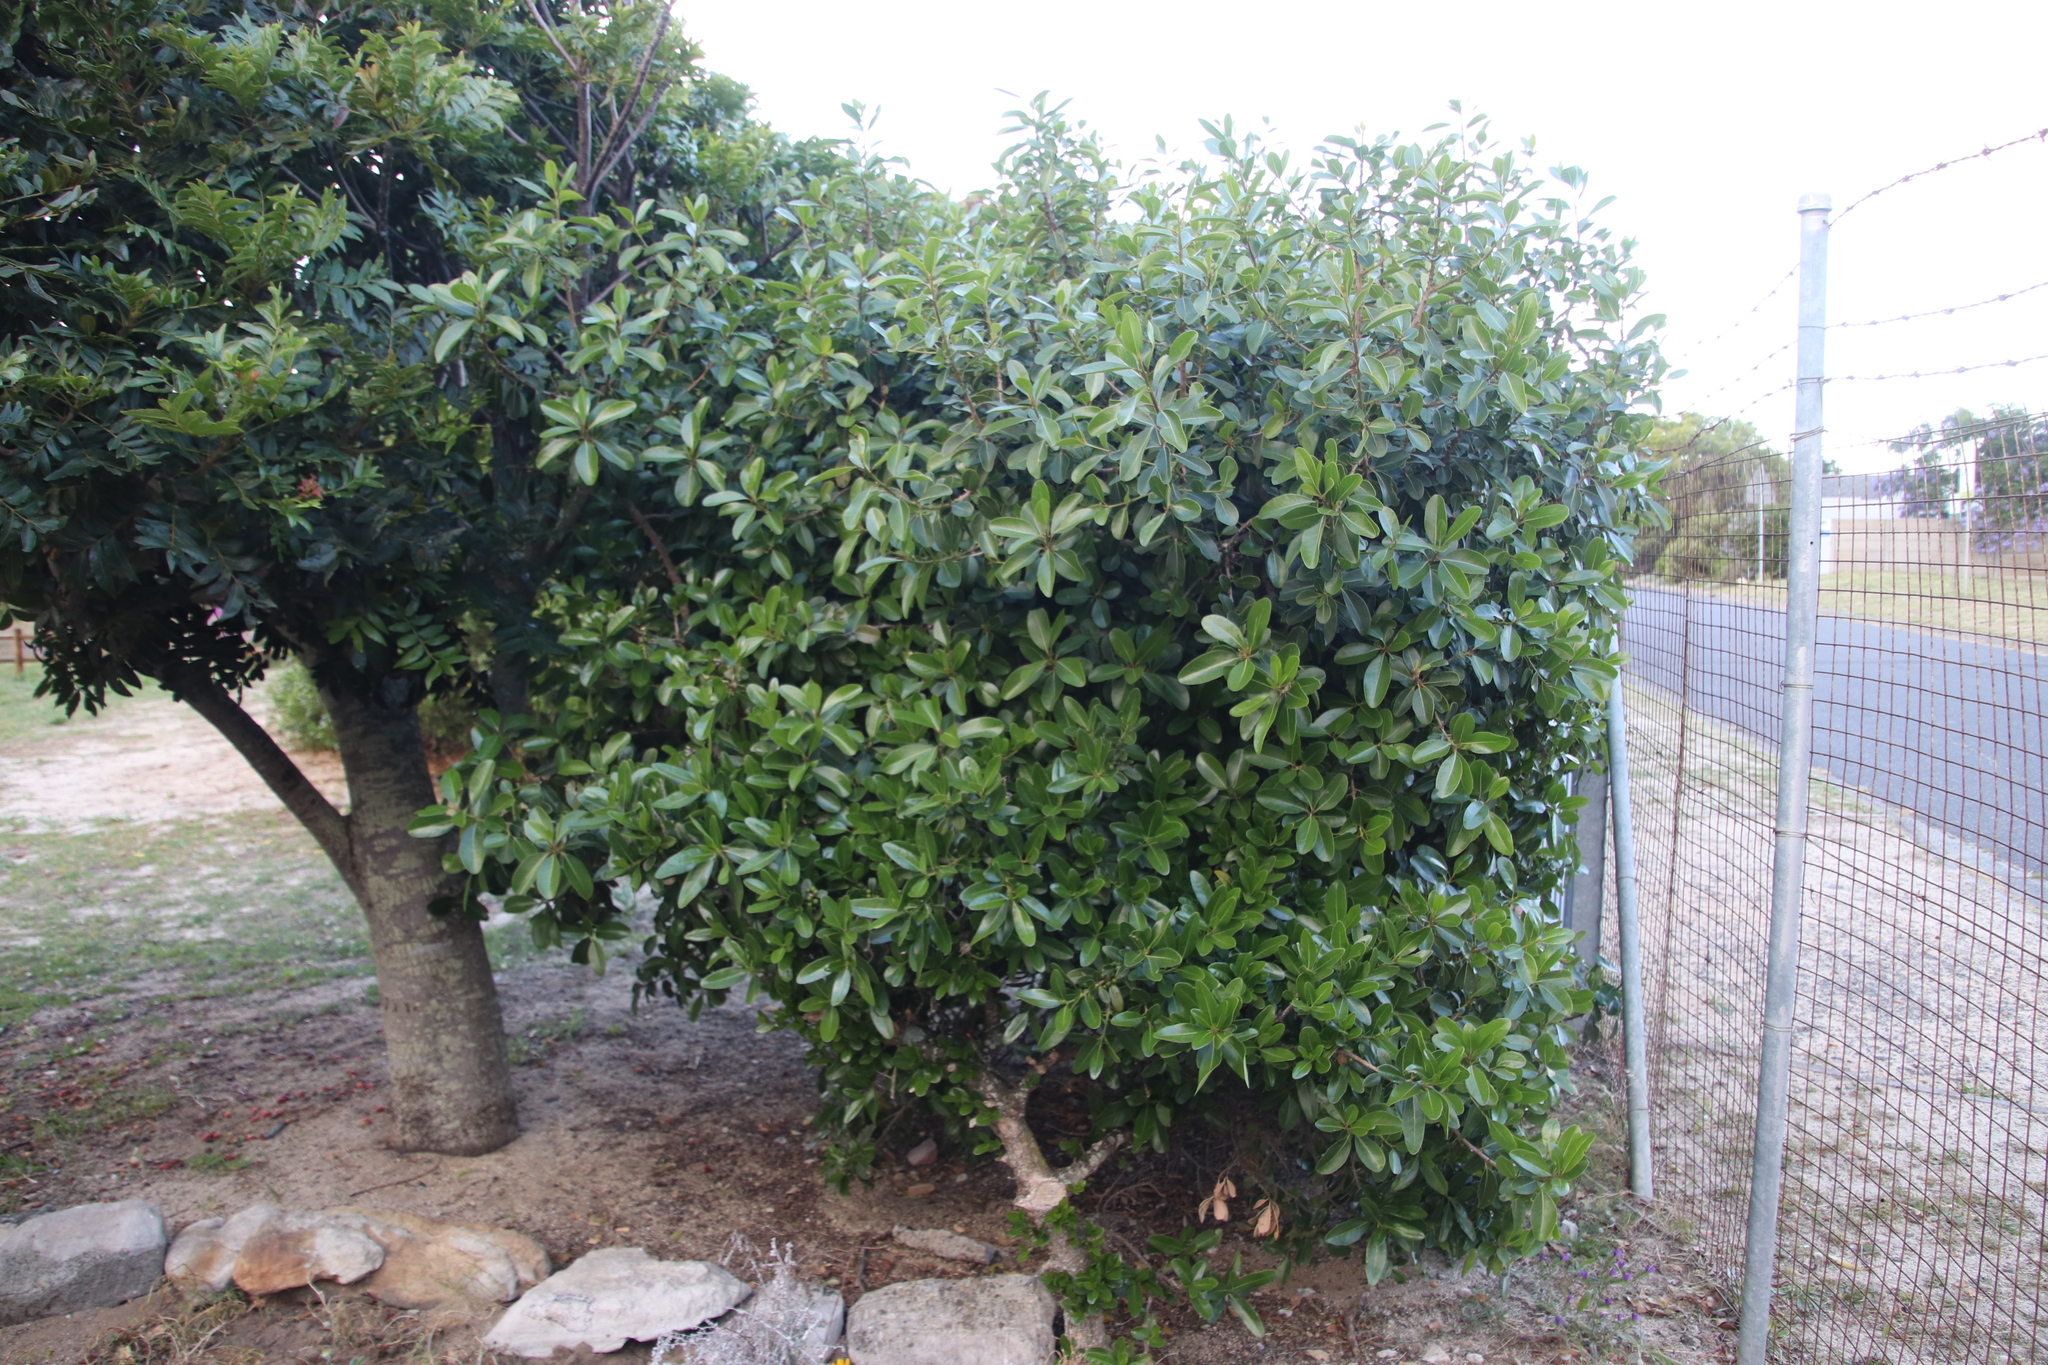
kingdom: Plantae
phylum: Tracheophyta
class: Magnoliopsida
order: Ericales
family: Sapotaceae
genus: Sideroxylon
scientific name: Sideroxylon inerme
